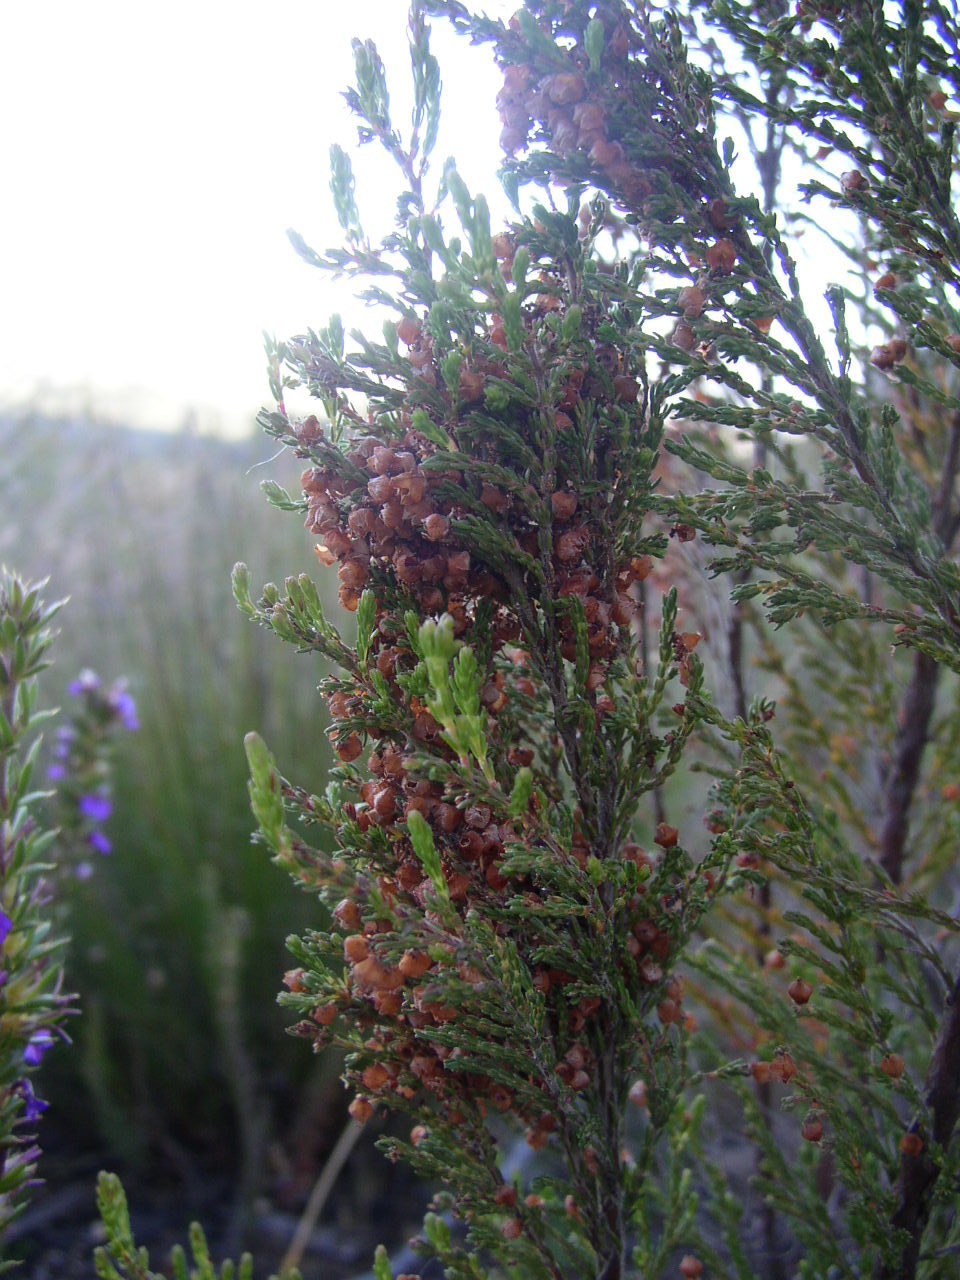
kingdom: Plantae
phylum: Tracheophyta
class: Magnoliopsida
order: Ericales
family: Ericaceae
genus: Erica
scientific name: Erica mauritanica
